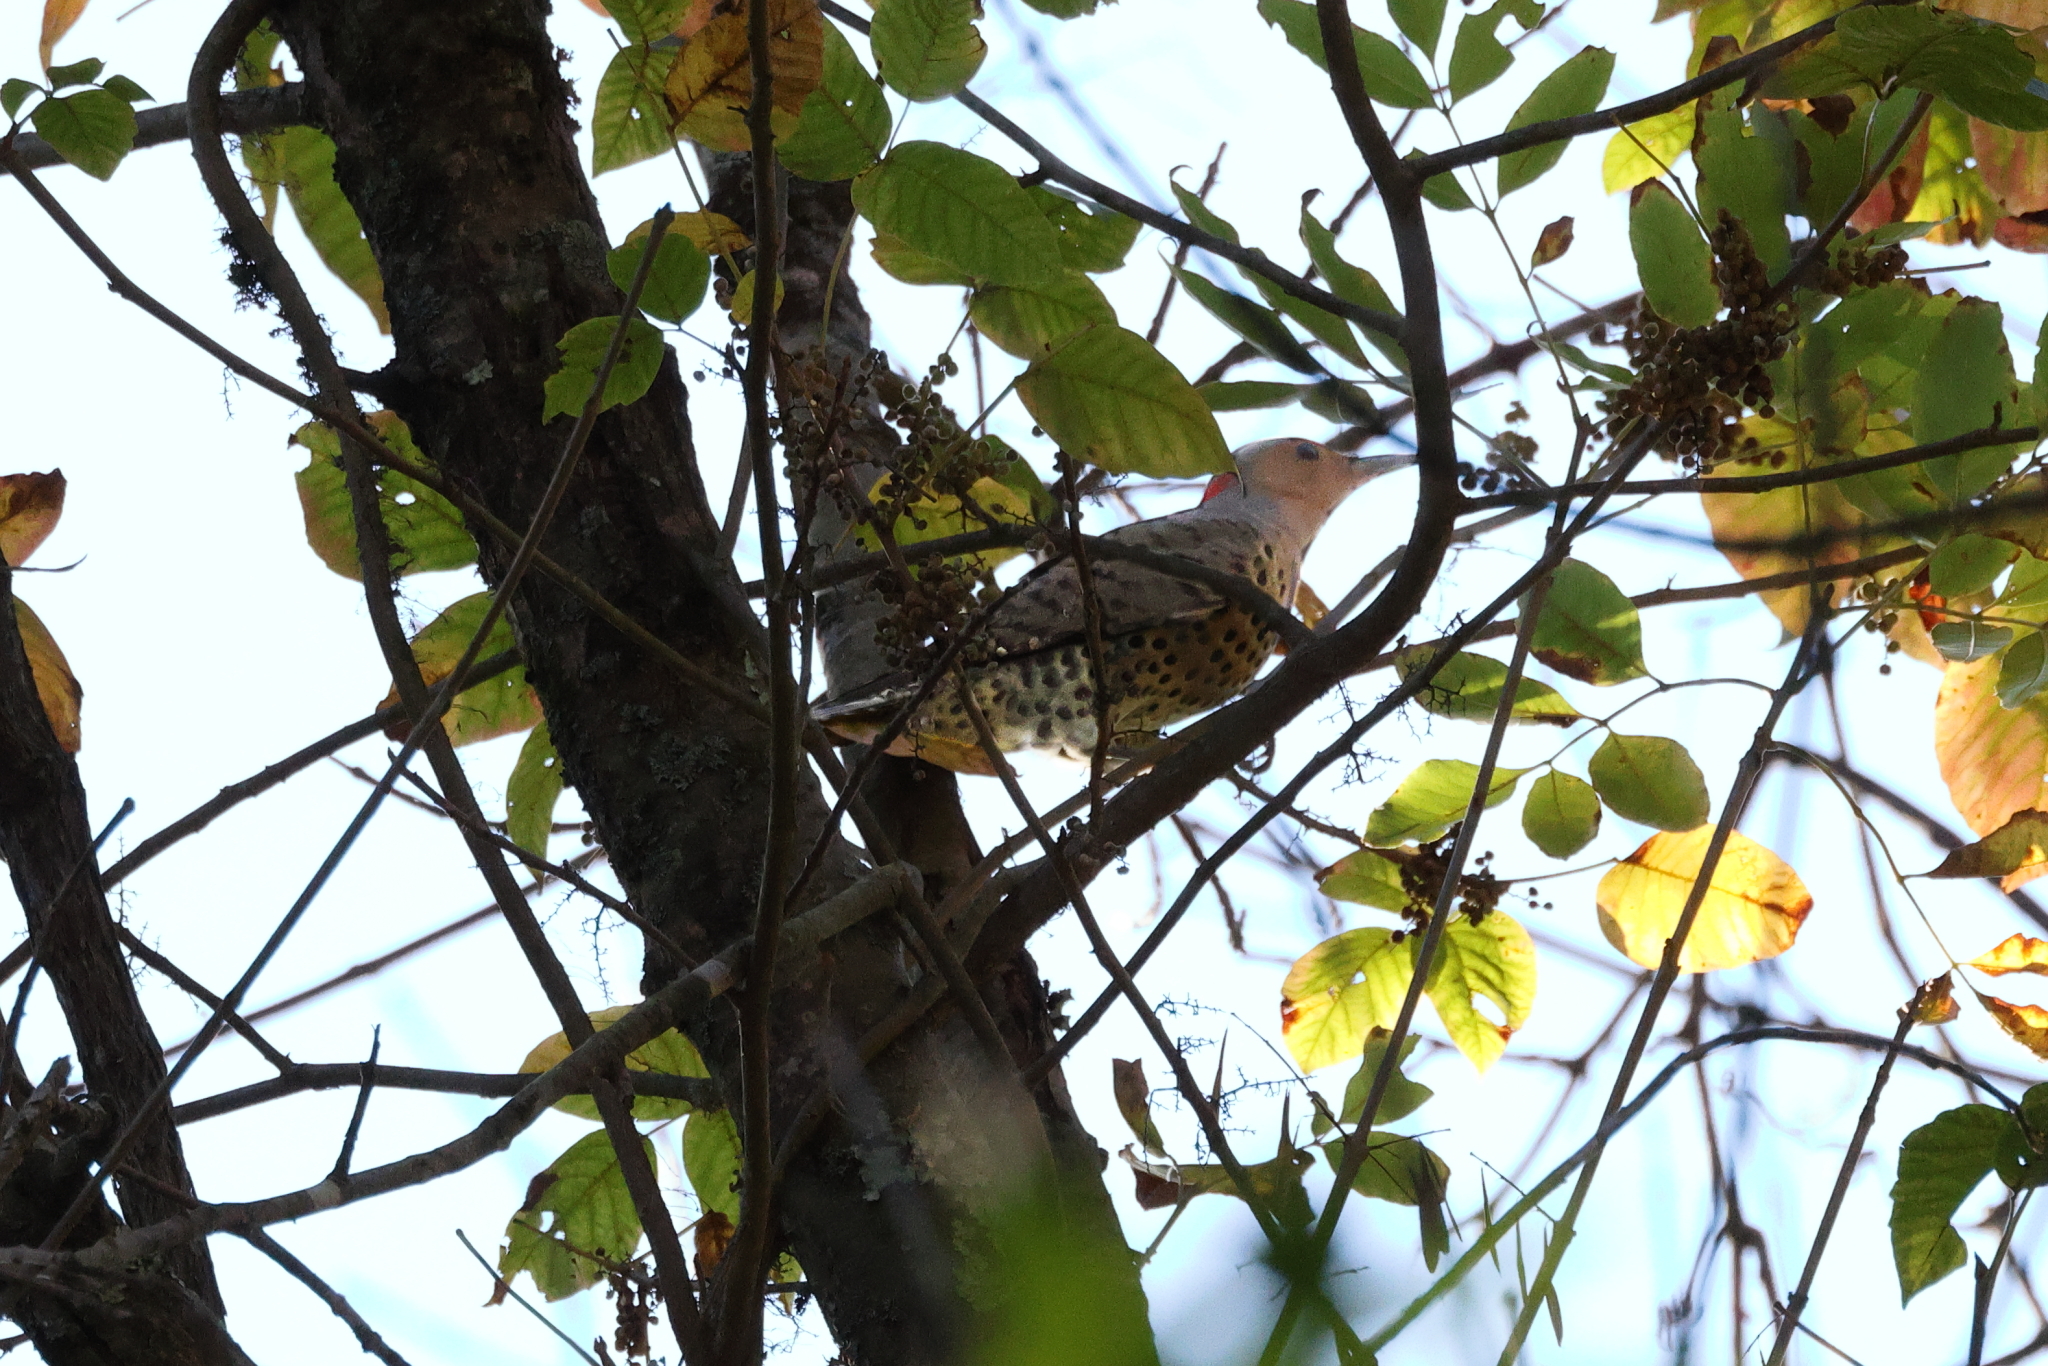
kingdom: Animalia
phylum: Chordata
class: Aves
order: Piciformes
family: Picidae
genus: Colaptes
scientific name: Colaptes auratus
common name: Northern flicker
